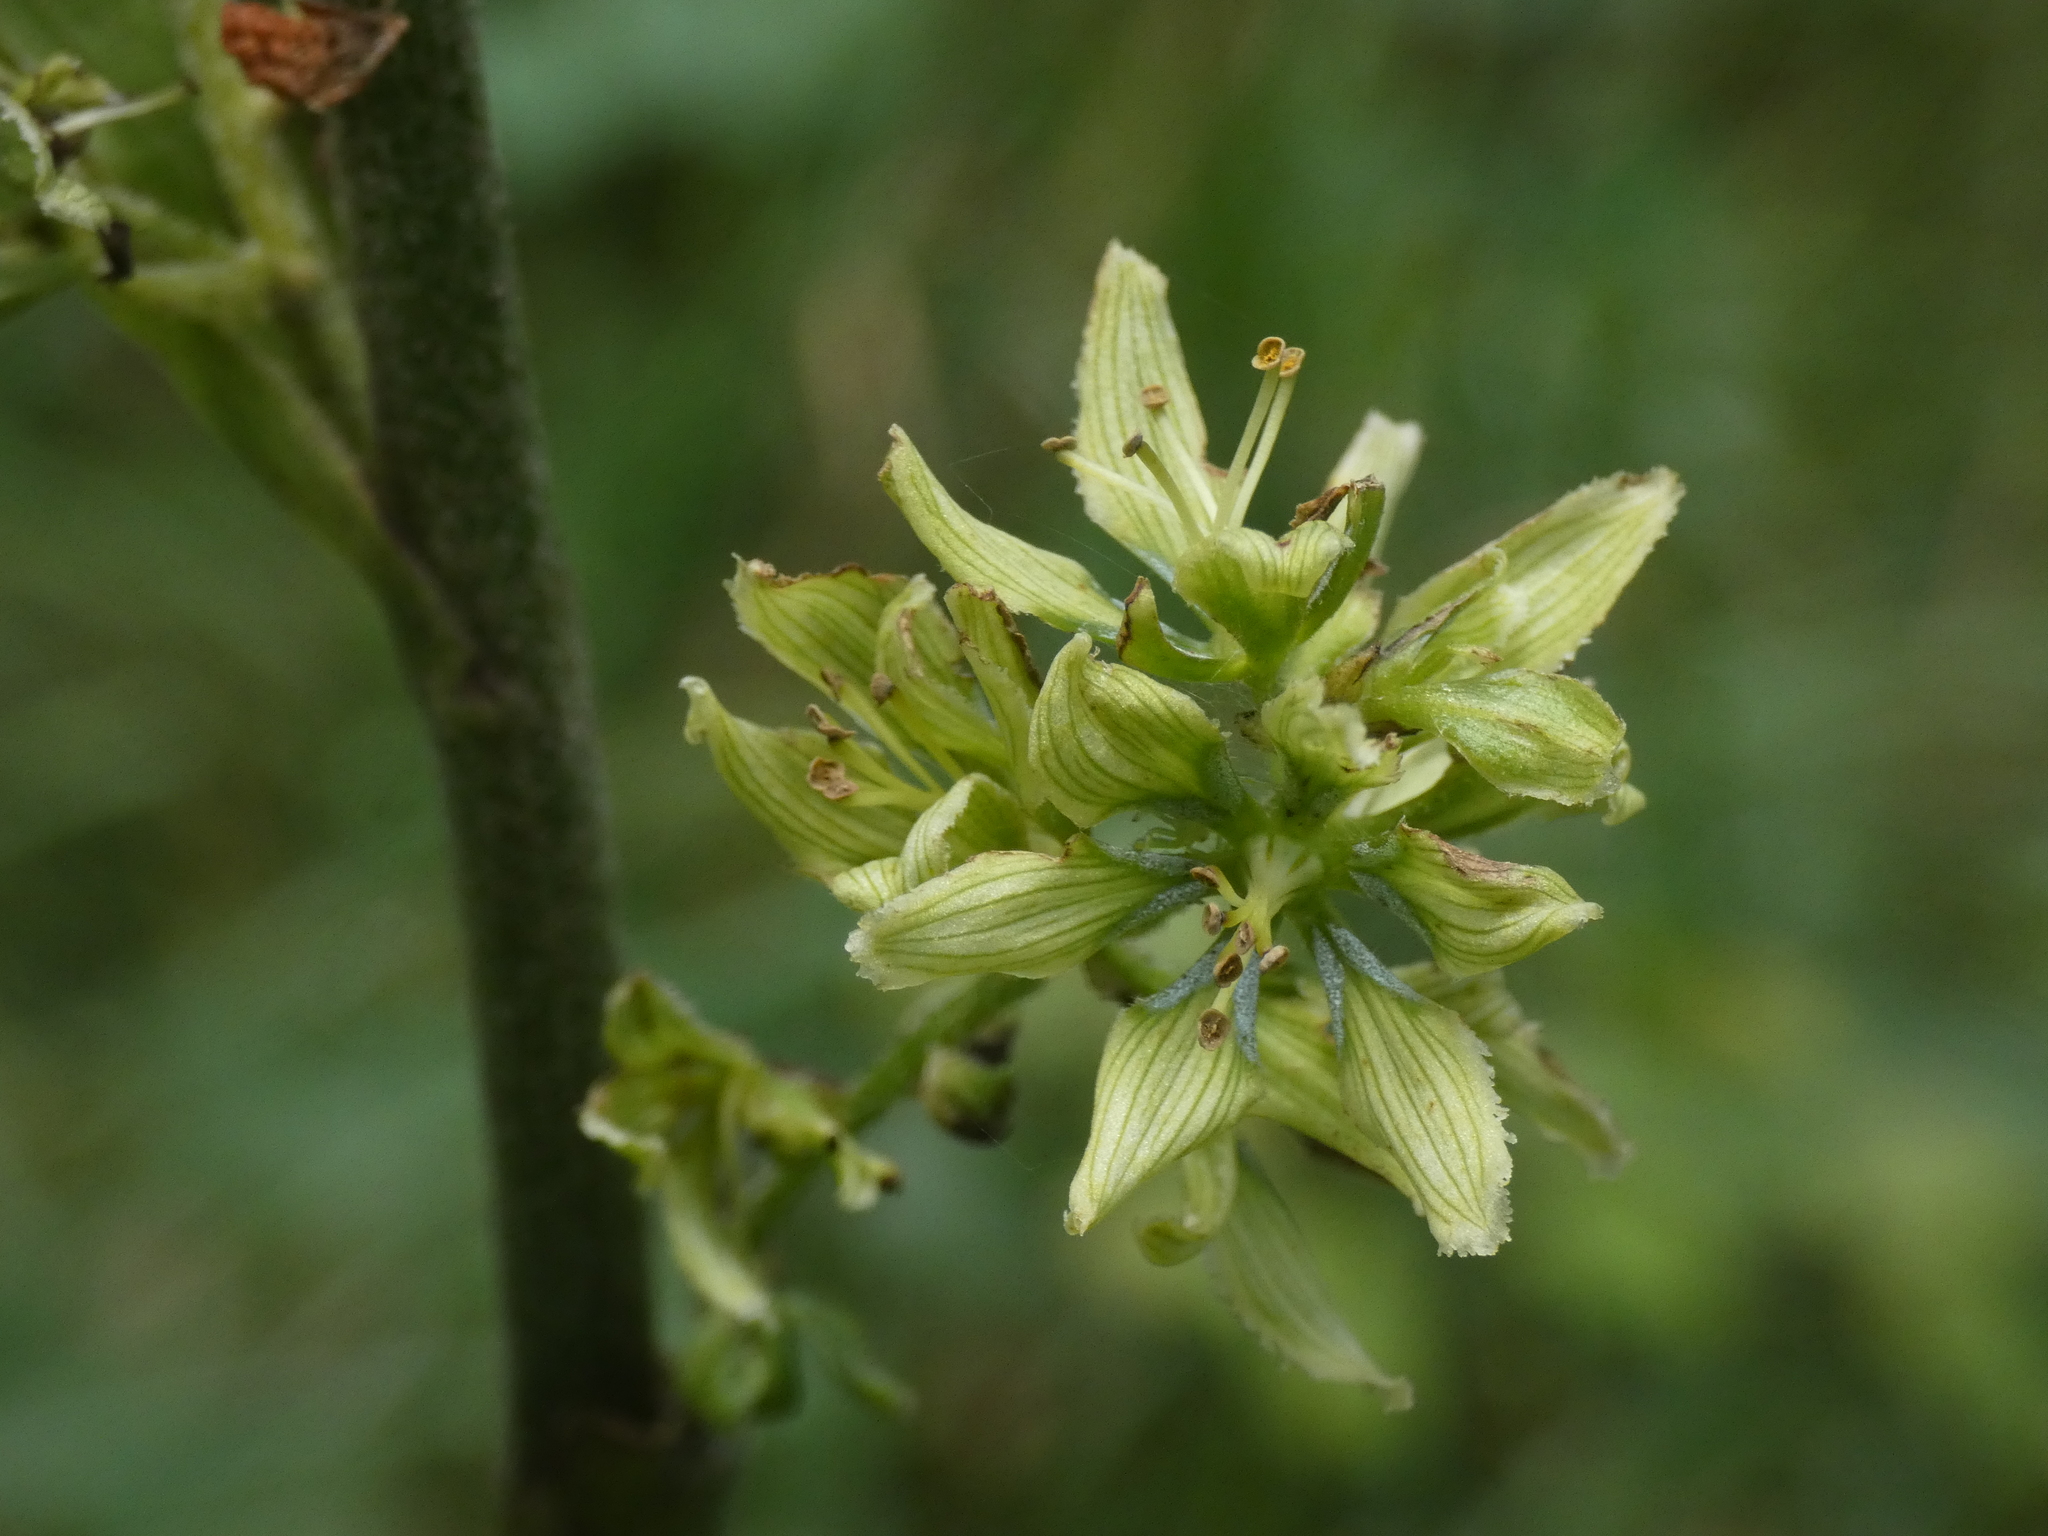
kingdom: Plantae
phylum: Tracheophyta
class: Liliopsida
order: Liliales
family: Melanthiaceae
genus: Veratrum
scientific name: Veratrum album
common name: White veratrum
